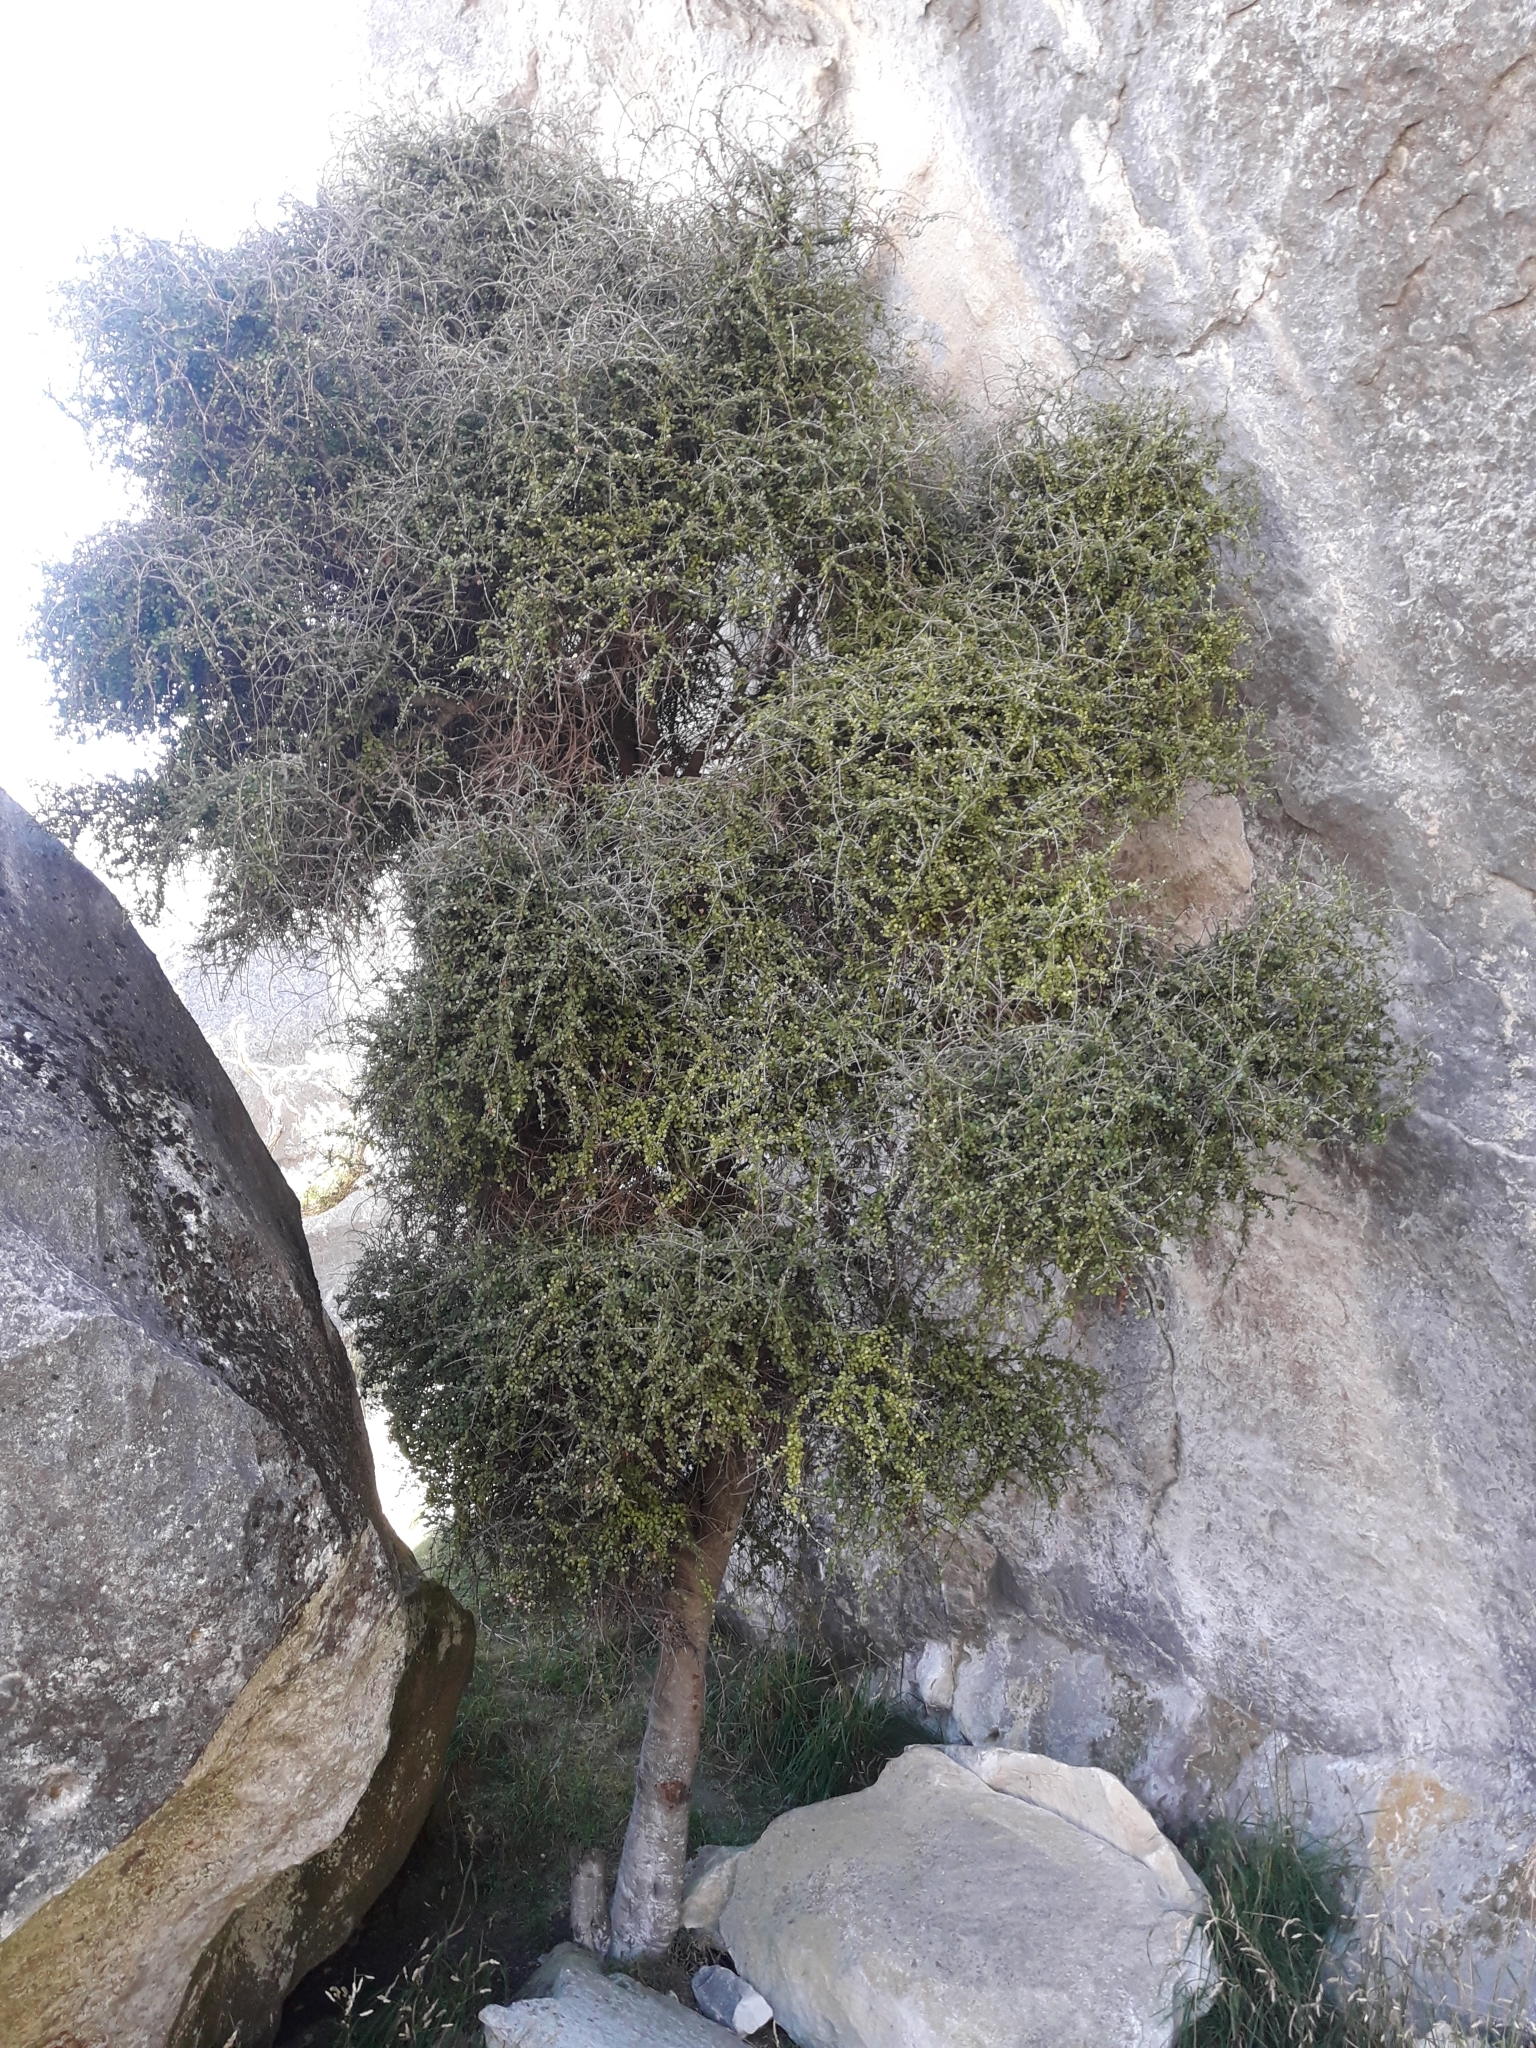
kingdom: Plantae
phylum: Tracheophyta
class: Magnoliopsida
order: Ericales
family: Primulaceae
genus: Myrsine
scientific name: Myrsine divaricata
